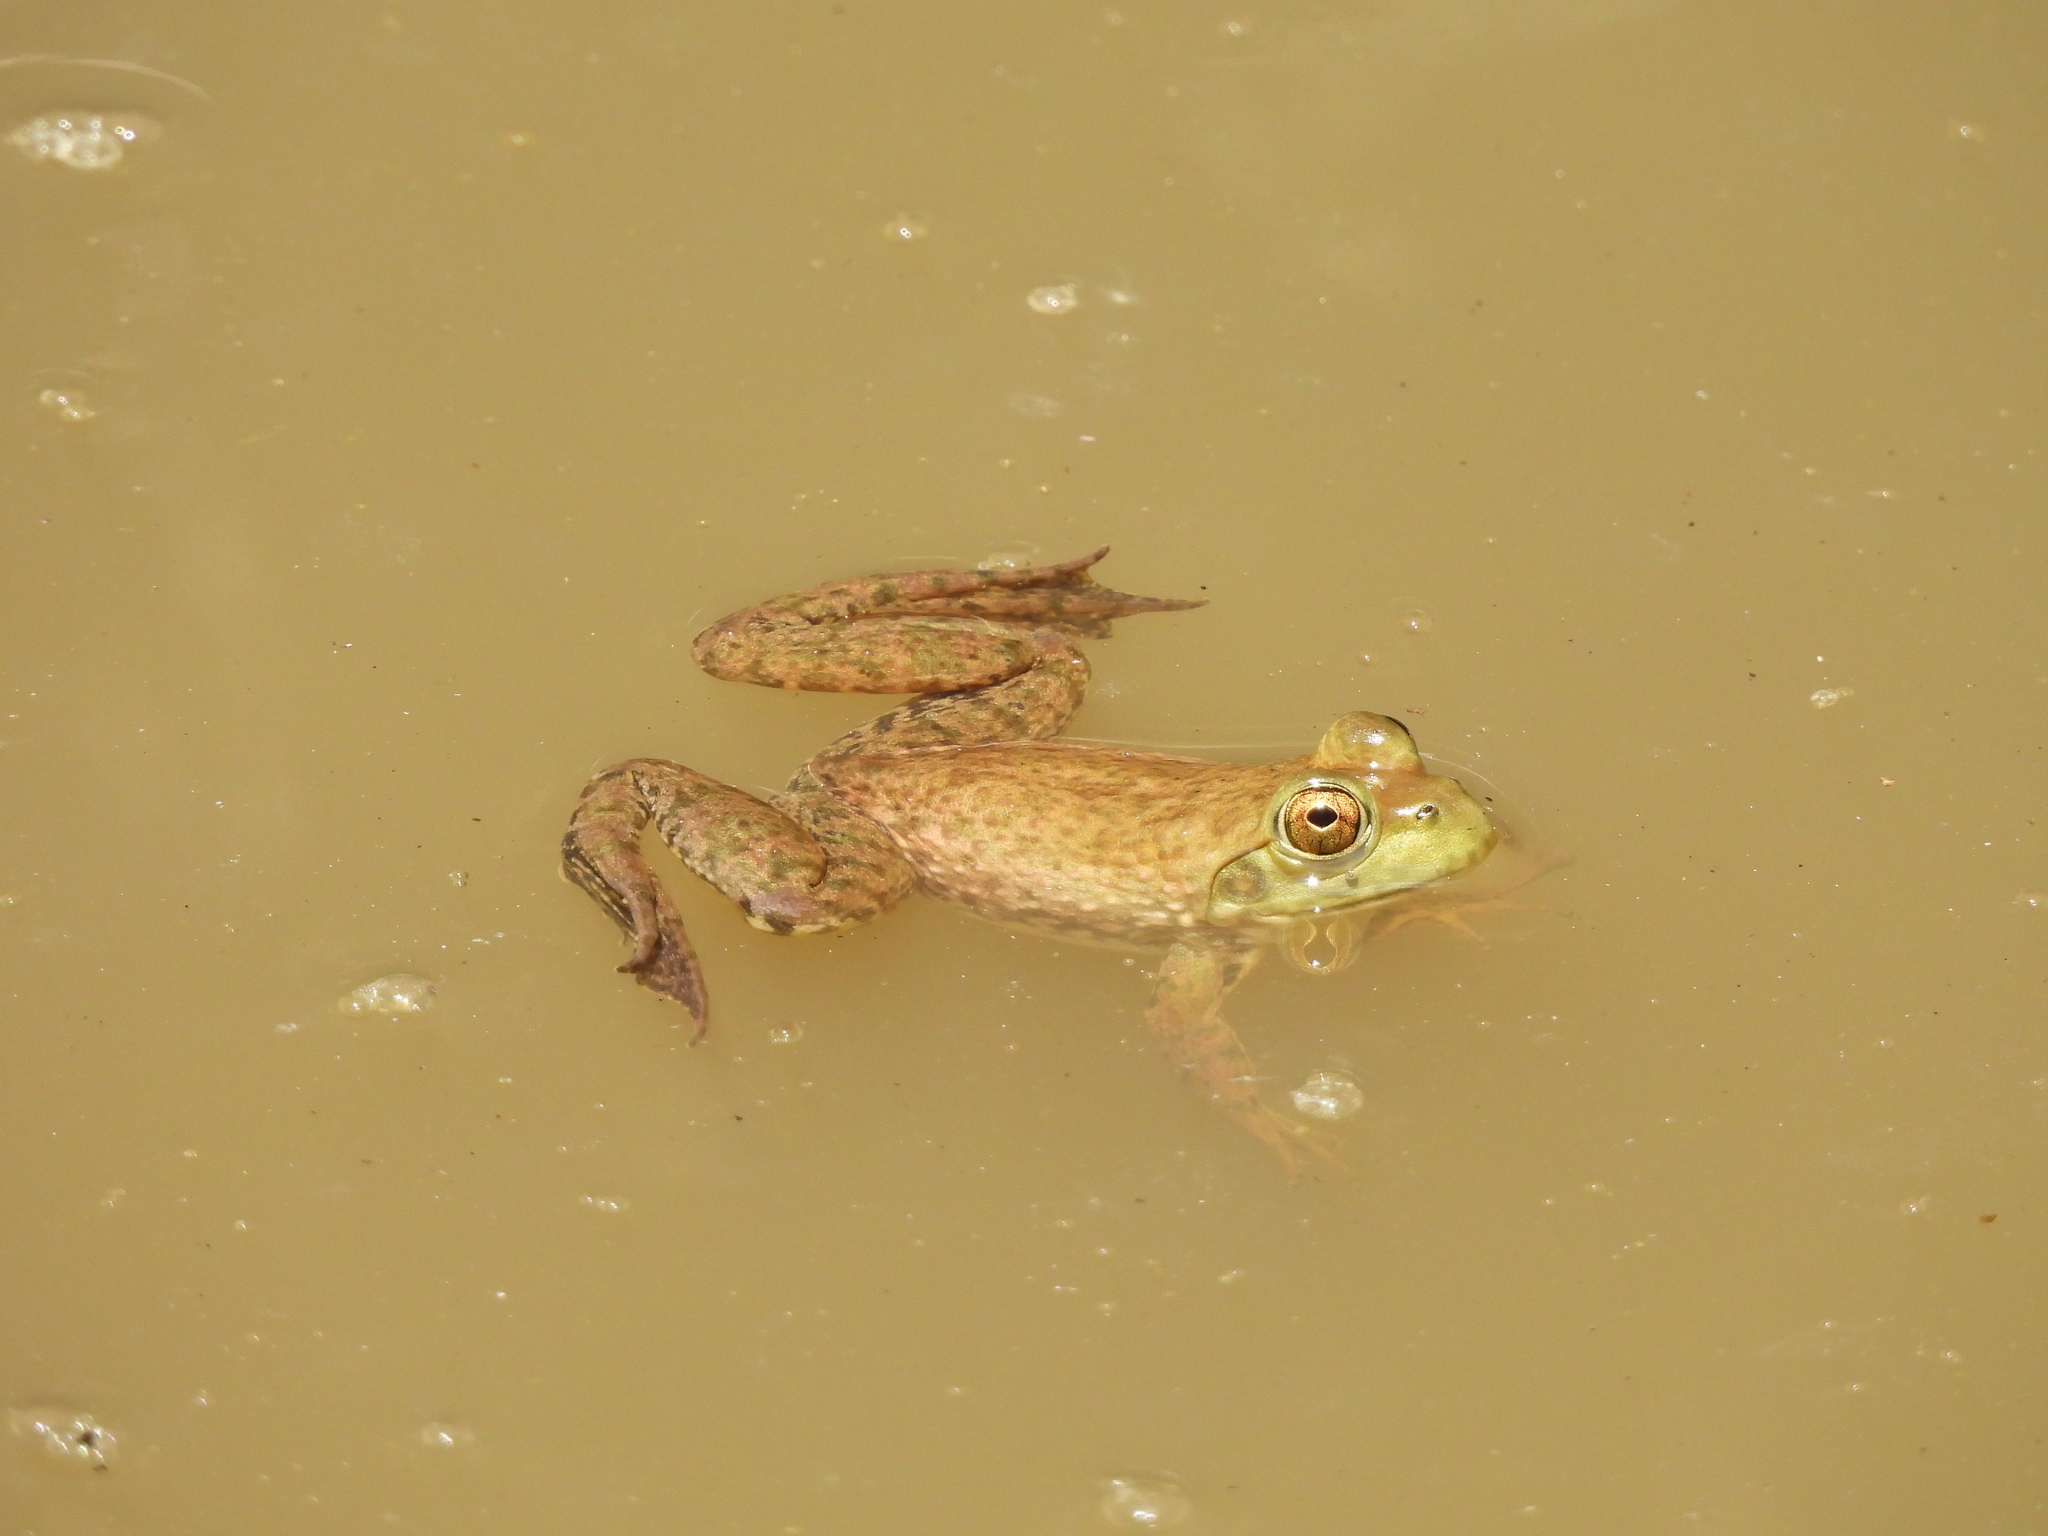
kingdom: Animalia
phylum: Chordata
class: Amphibia
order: Anura
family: Ranidae
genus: Lithobates
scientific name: Lithobates catesbeianus
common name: American bullfrog
